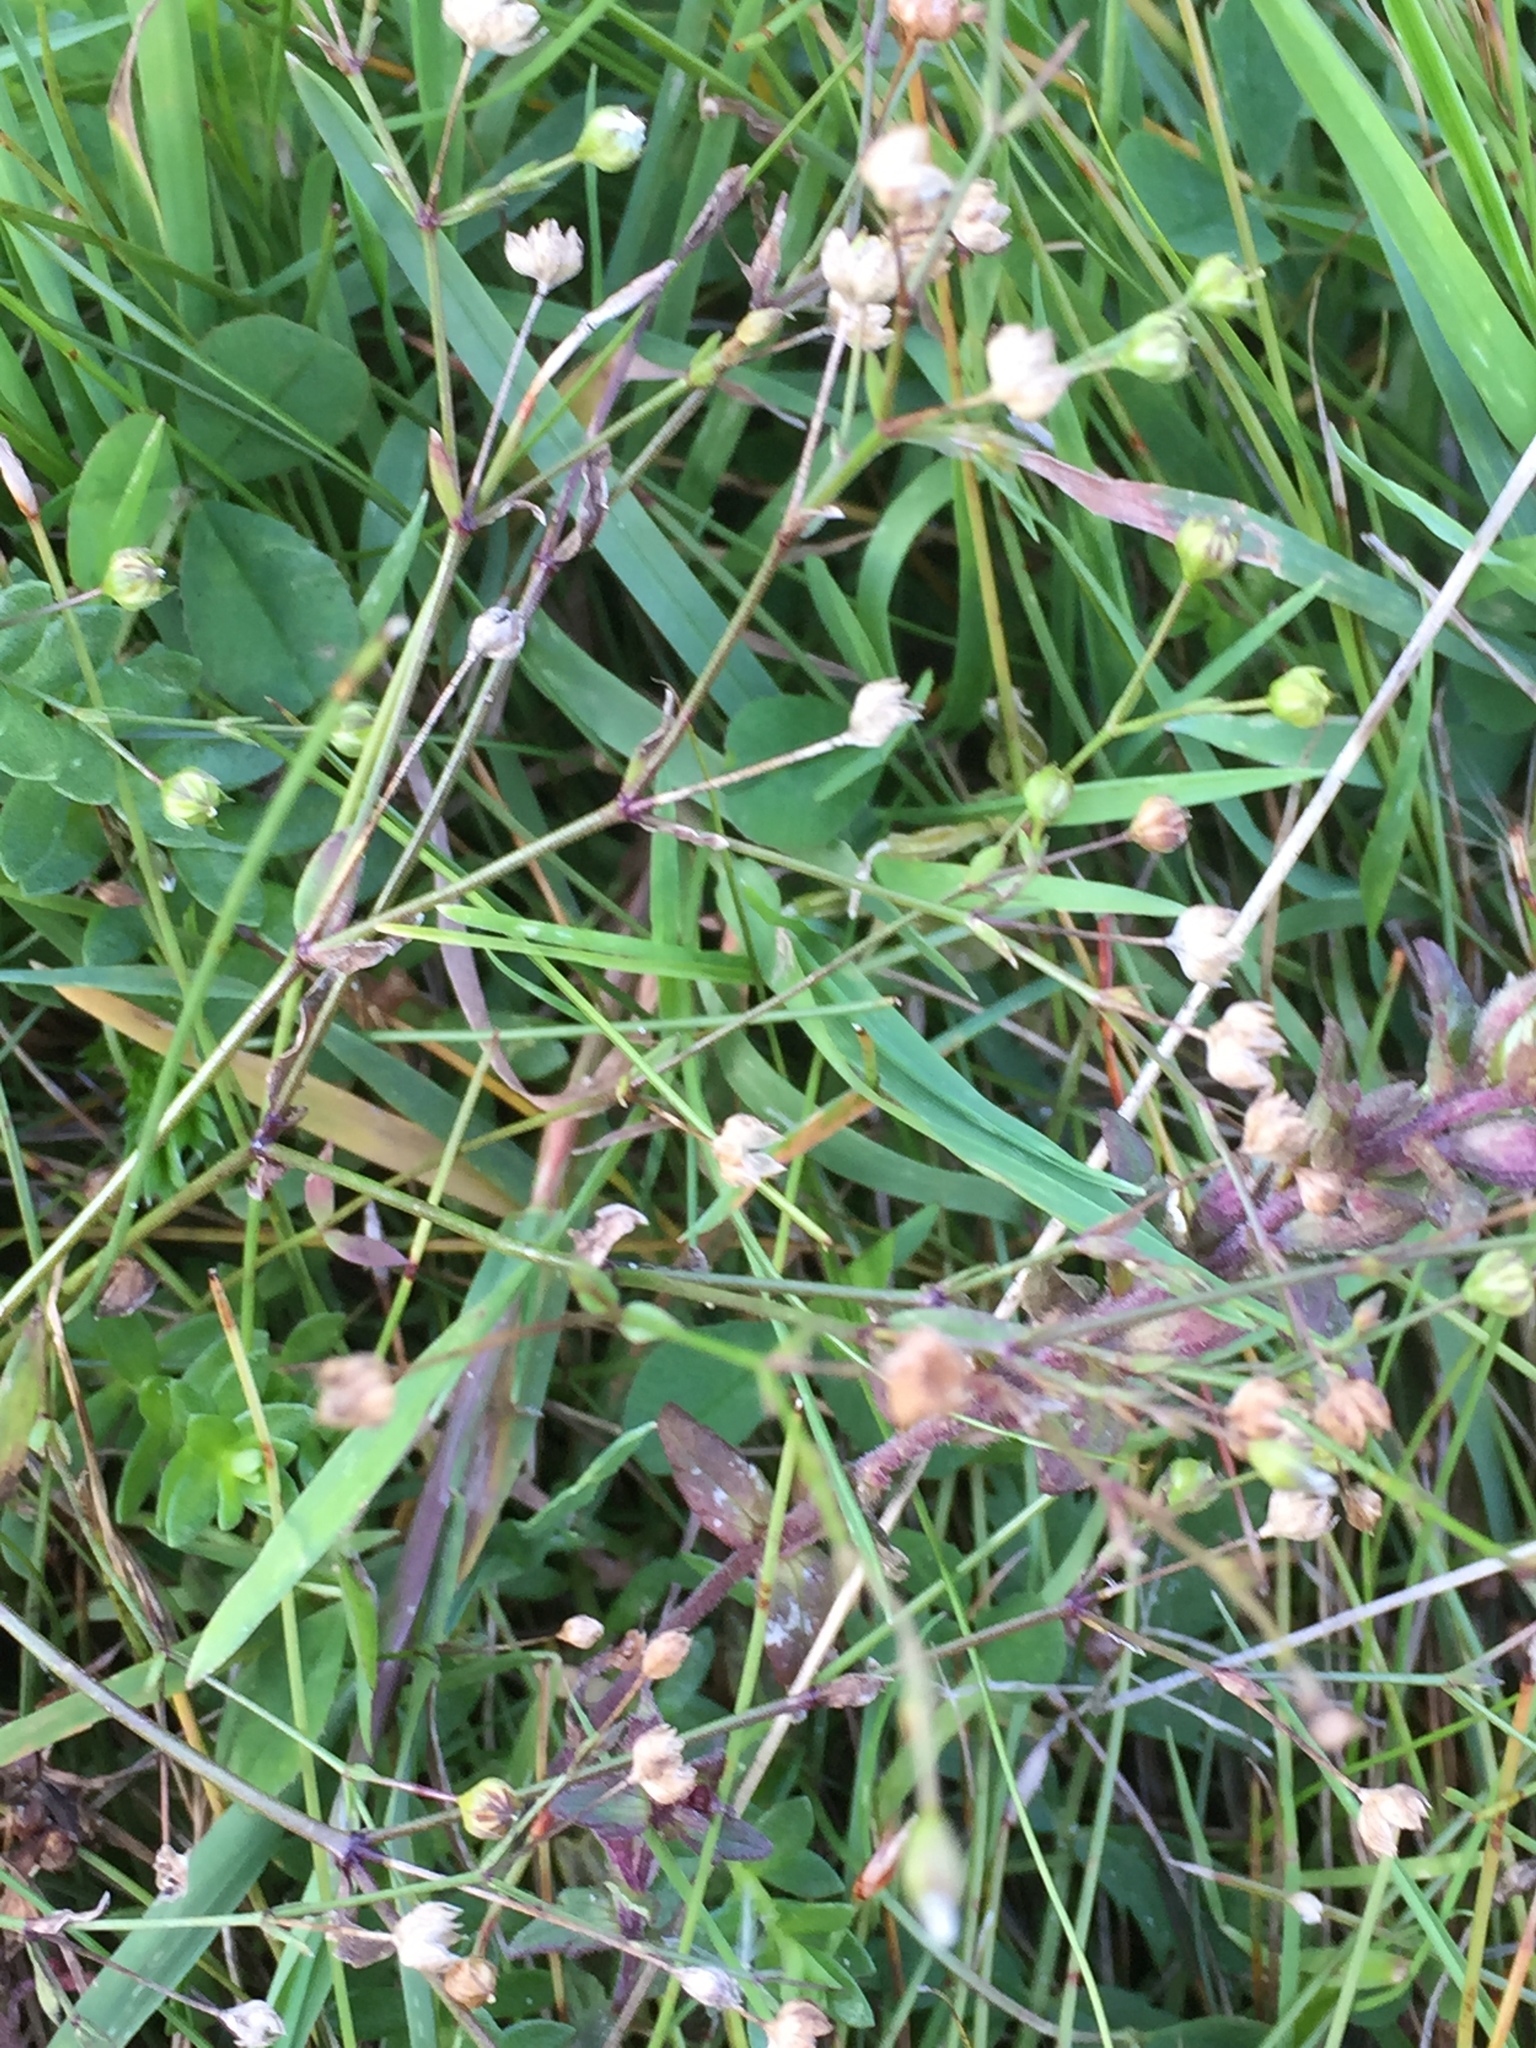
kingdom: Plantae
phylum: Tracheophyta
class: Magnoliopsida
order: Malpighiales
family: Linaceae
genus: Linum
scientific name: Linum catharticum
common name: Fairy flax
